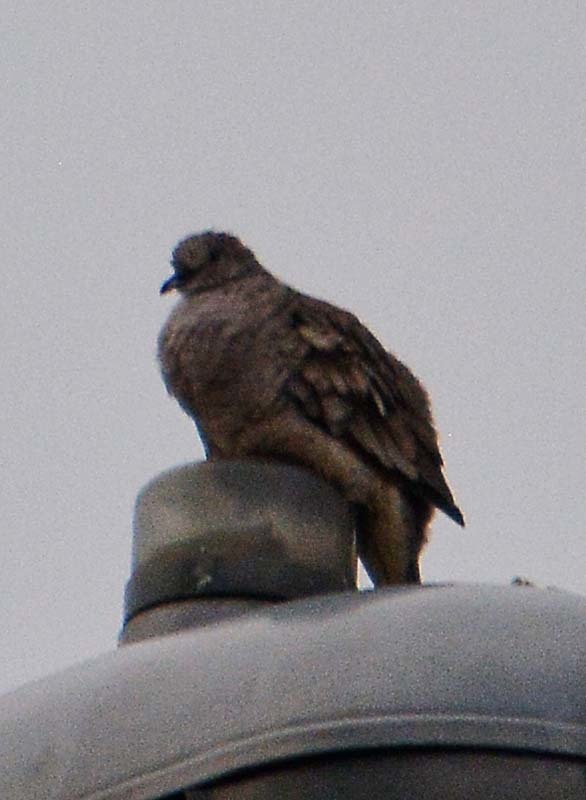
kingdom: Animalia
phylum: Chordata
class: Aves
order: Columbiformes
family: Columbidae
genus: Columbina
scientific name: Columbina inca
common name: Inca dove
